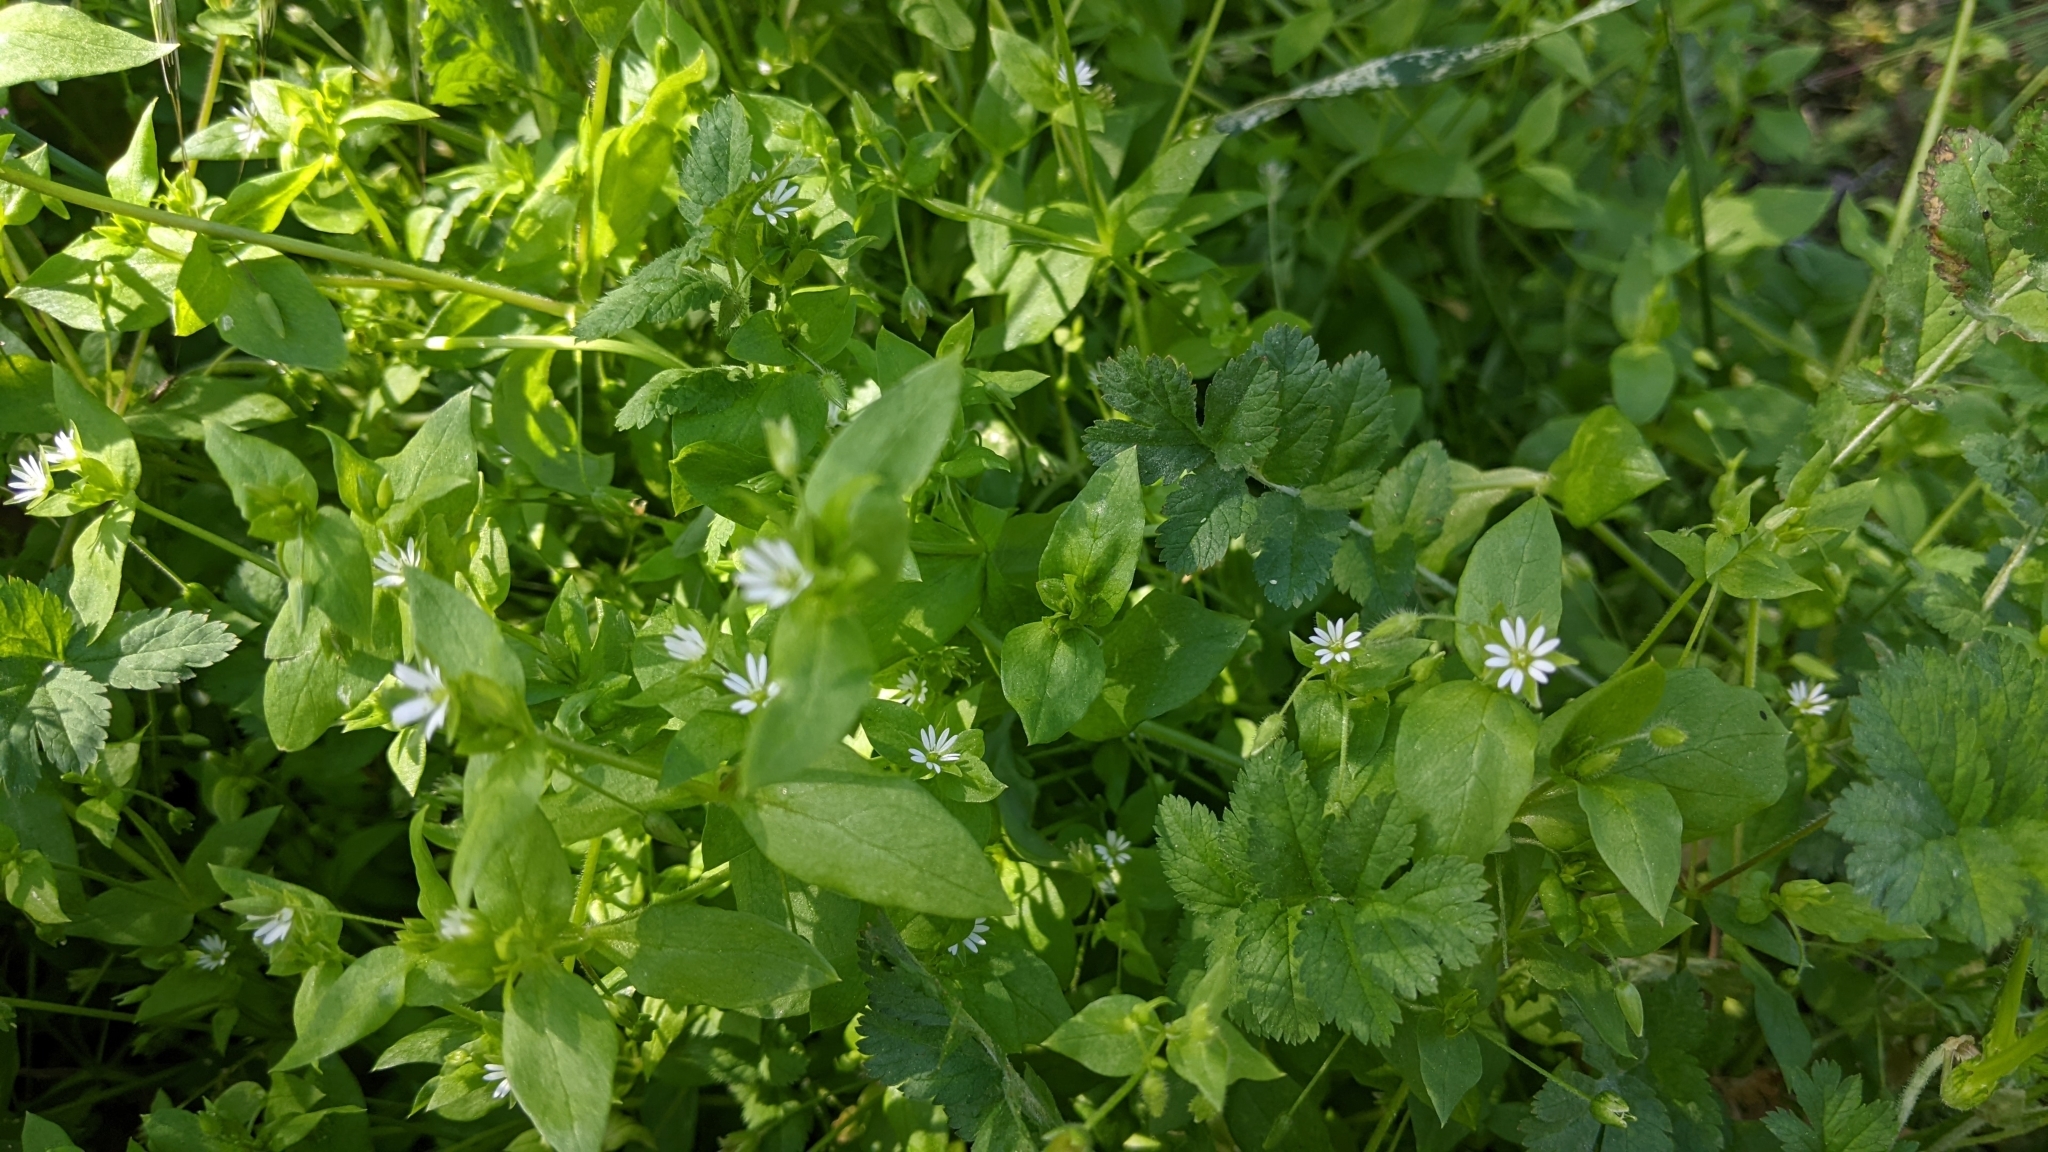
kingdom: Plantae
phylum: Tracheophyta
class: Magnoliopsida
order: Caryophyllales
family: Caryophyllaceae
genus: Stellaria
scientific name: Stellaria media
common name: Common chickweed
